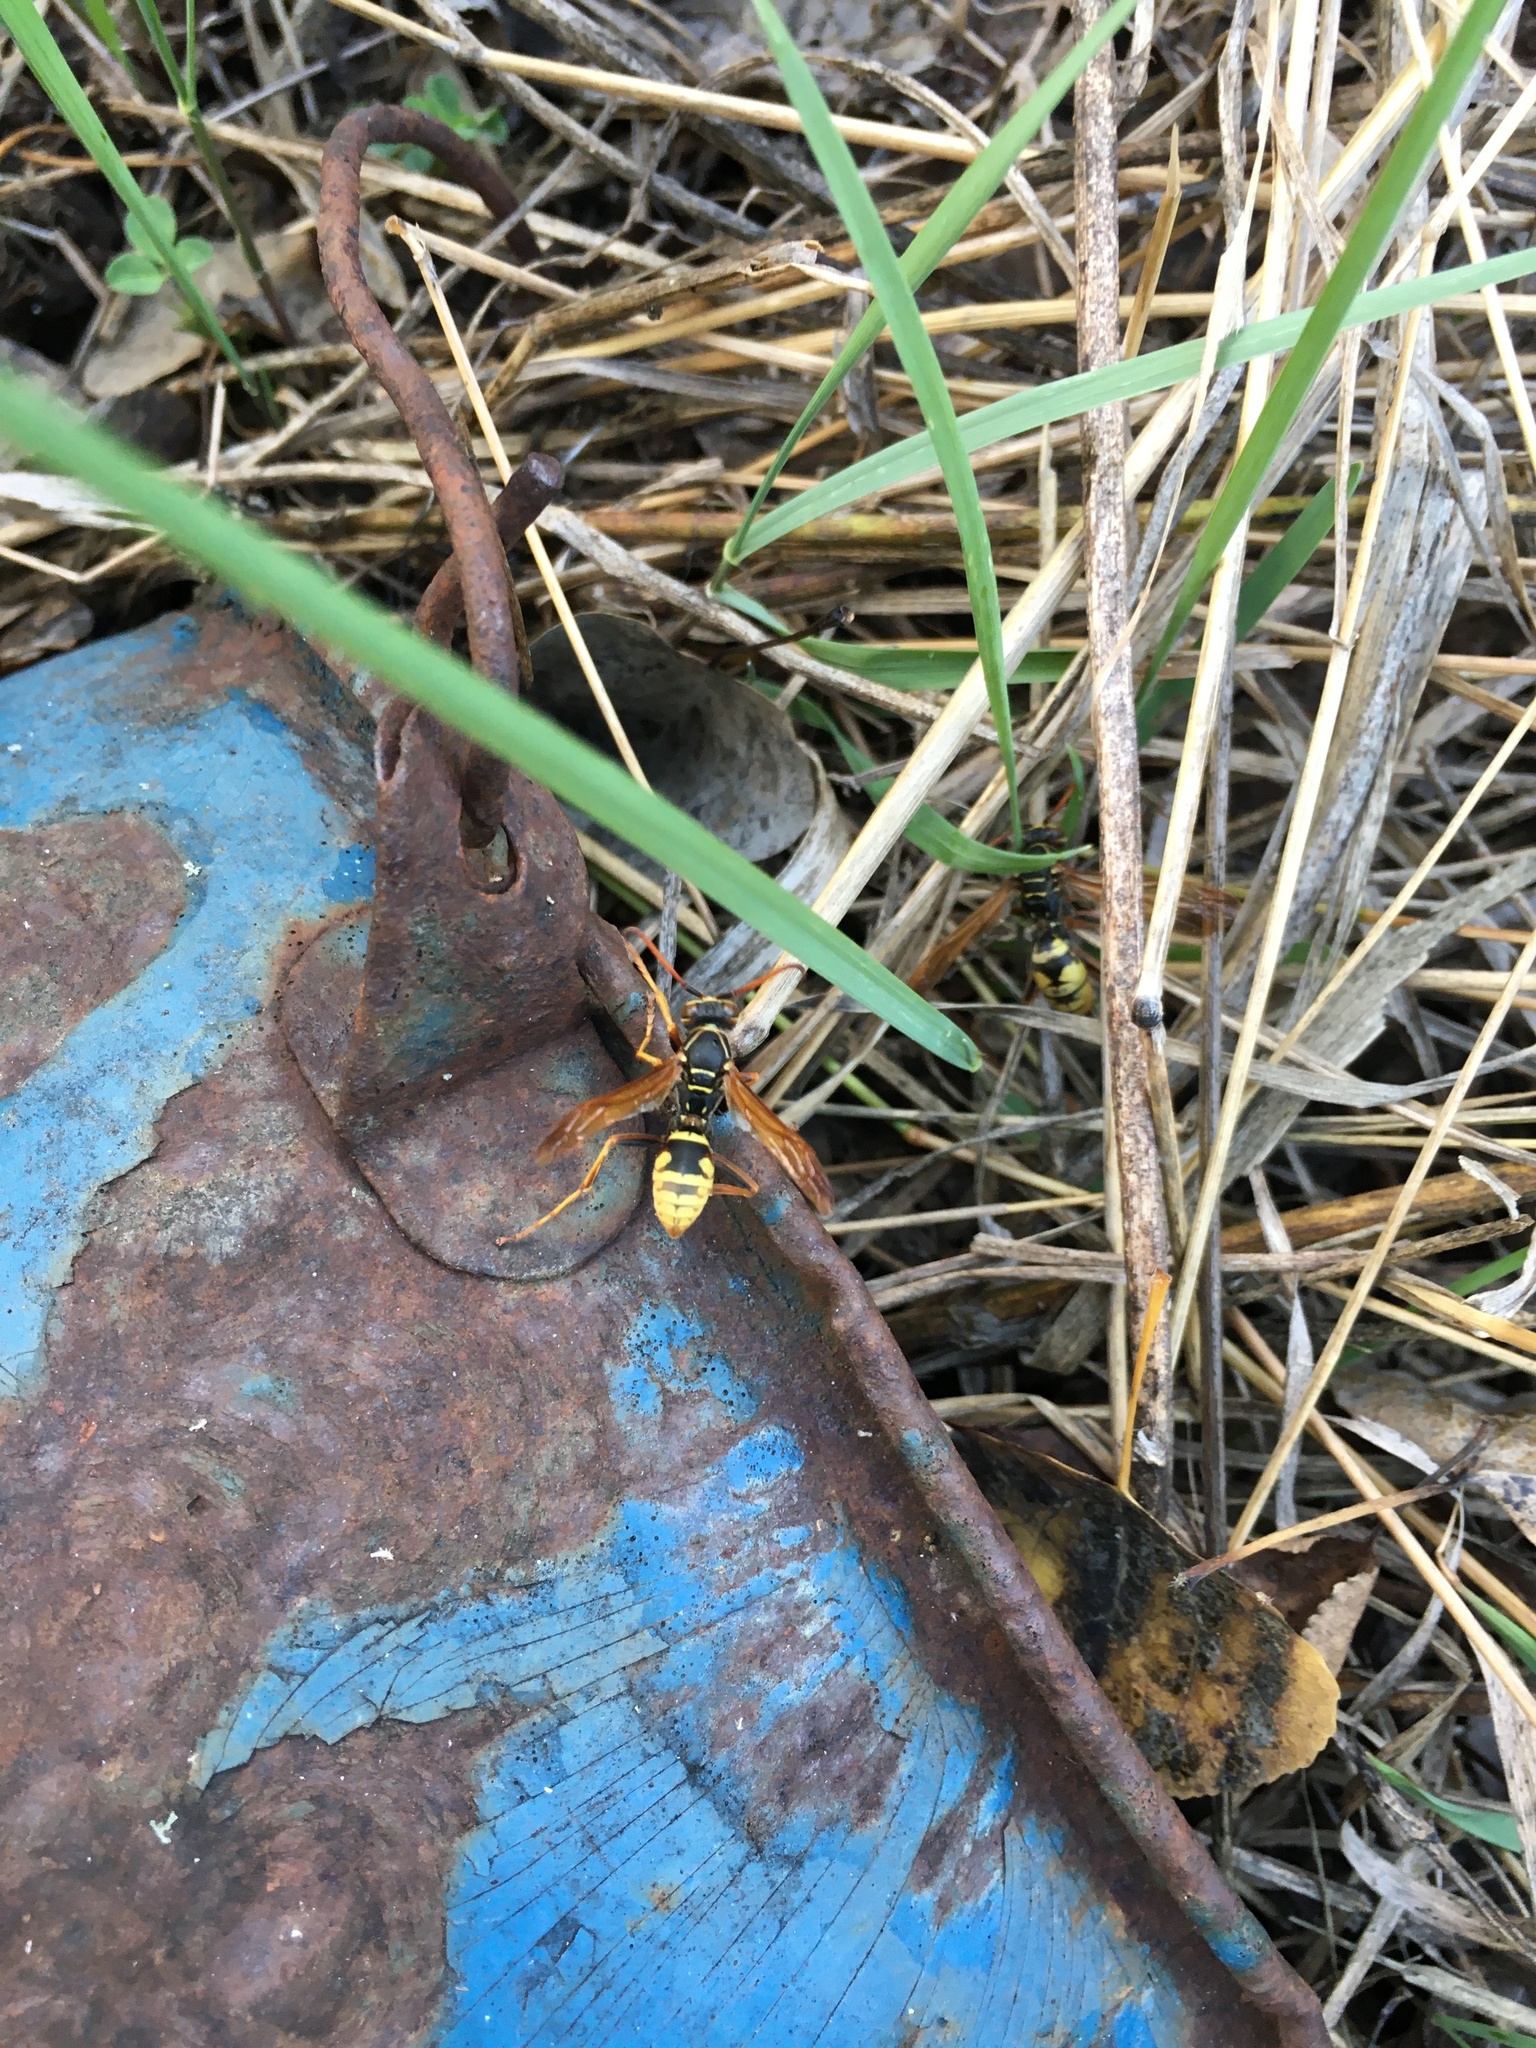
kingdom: Animalia
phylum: Arthropoda
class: Insecta
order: Hymenoptera
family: Eumenidae
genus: Polistes
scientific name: Polistes aurifer
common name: Paper wasp
